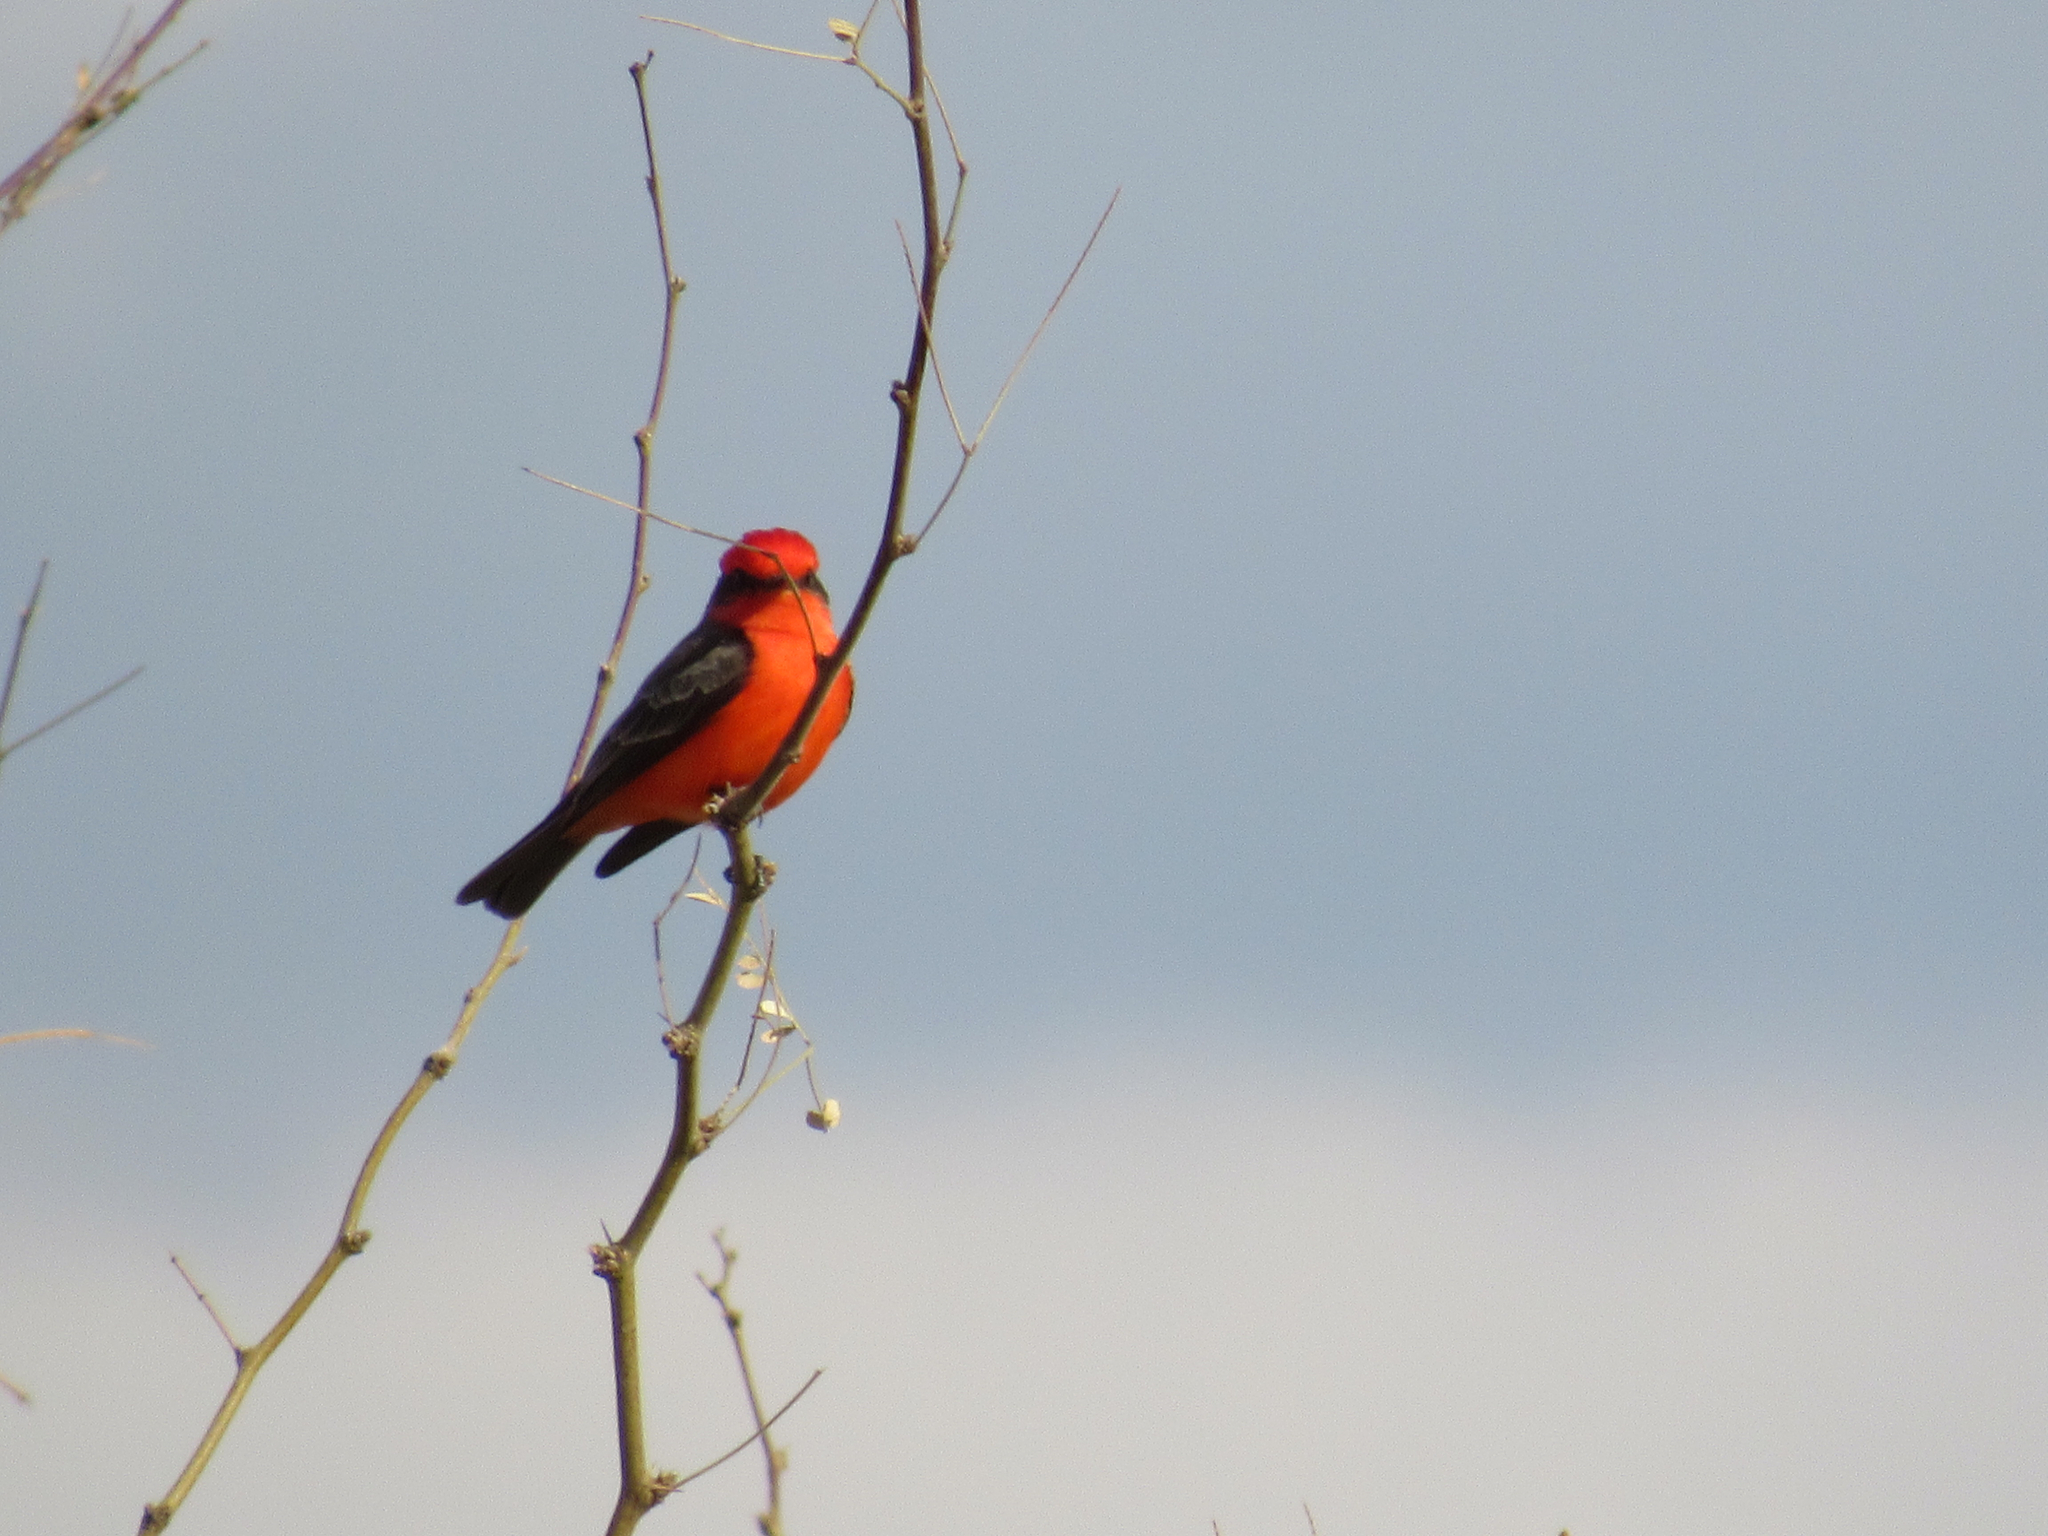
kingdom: Animalia
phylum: Chordata
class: Aves
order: Passeriformes
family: Tyrannidae
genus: Pyrocephalus
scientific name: Pyrocephalus rubinus
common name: Vermilion flycatcher
